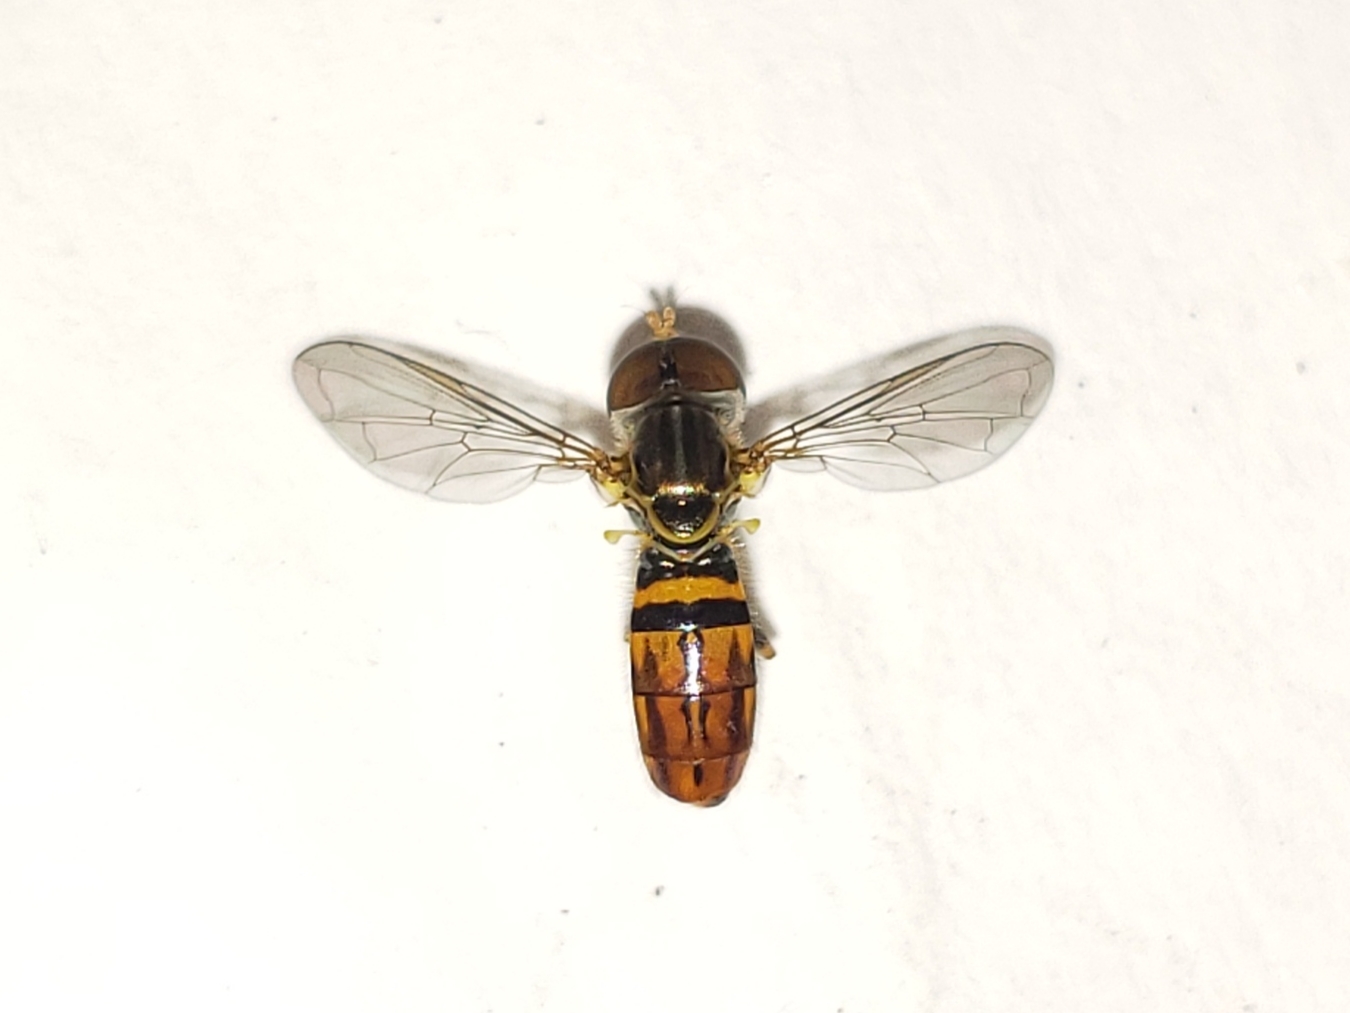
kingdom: Animalia
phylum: Arthropoda
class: Insecta
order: Diptera
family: Syrphidae
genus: Toxomerus
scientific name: Toxomerus boscii
